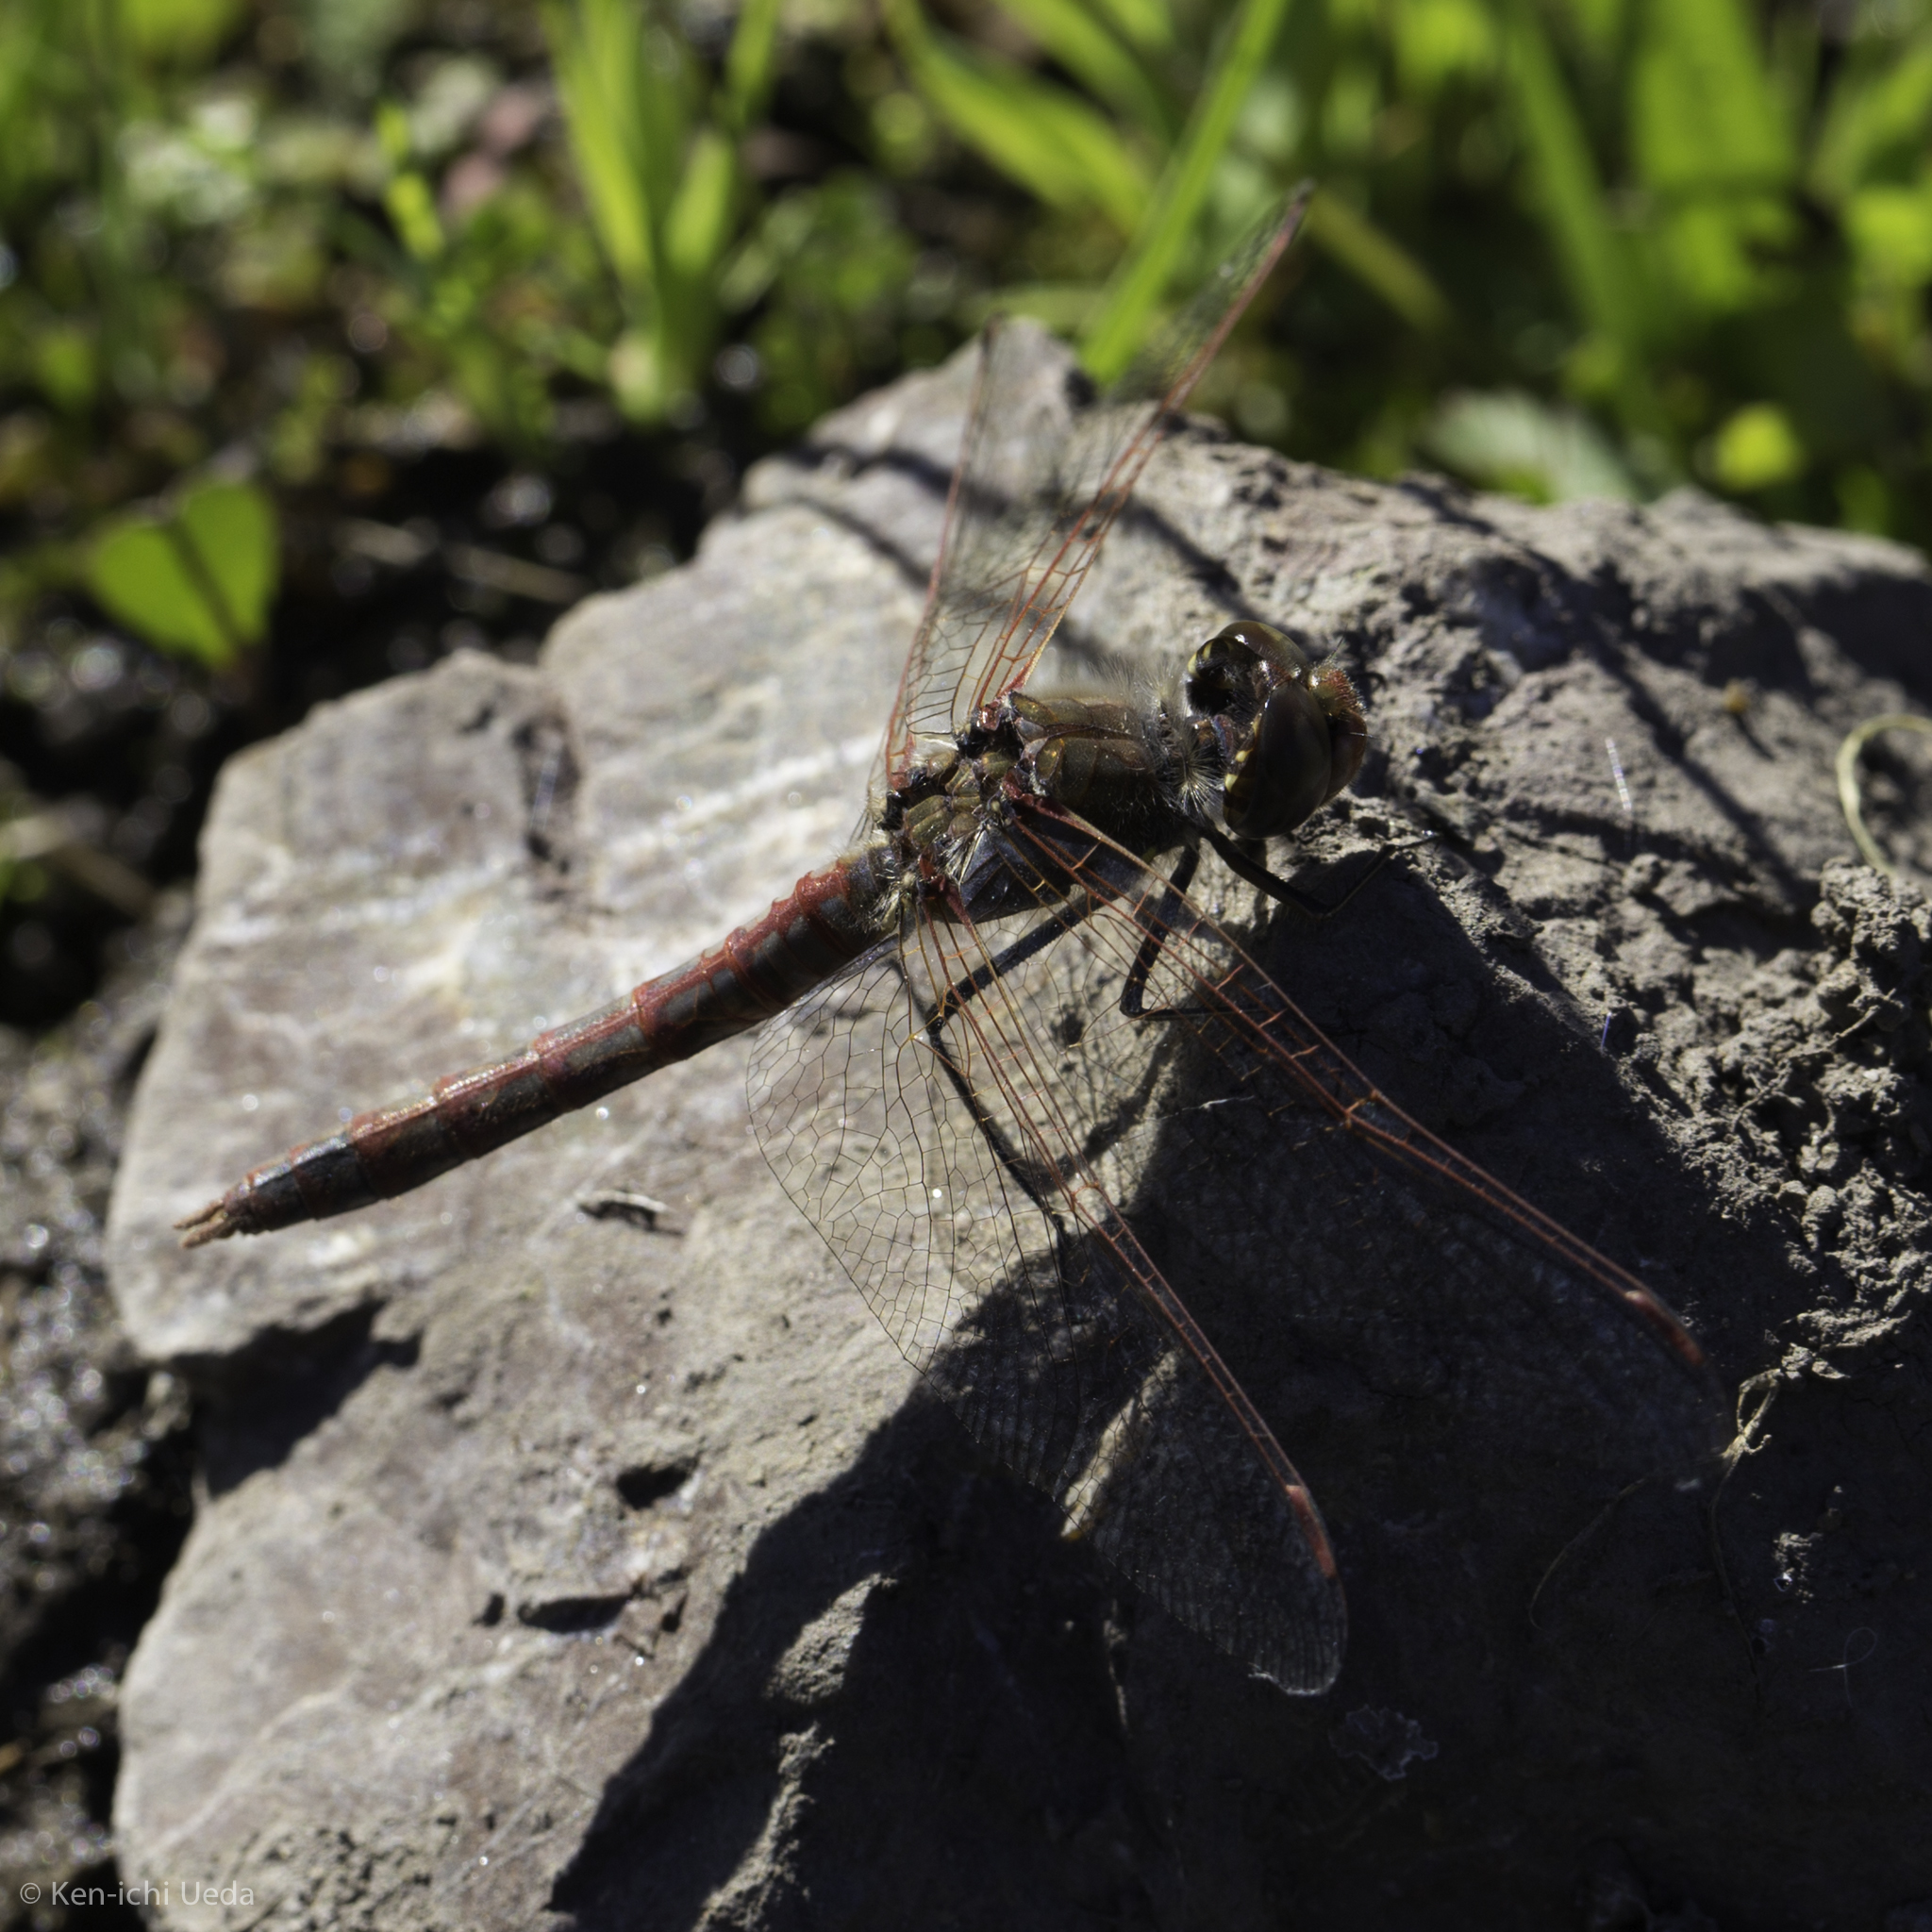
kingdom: Animalia
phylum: Arthropoda
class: Insecta
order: Odonata
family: Libellulidae
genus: Sympetrum
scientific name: Sympetrum corruptum
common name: Variegated meadowhawk
